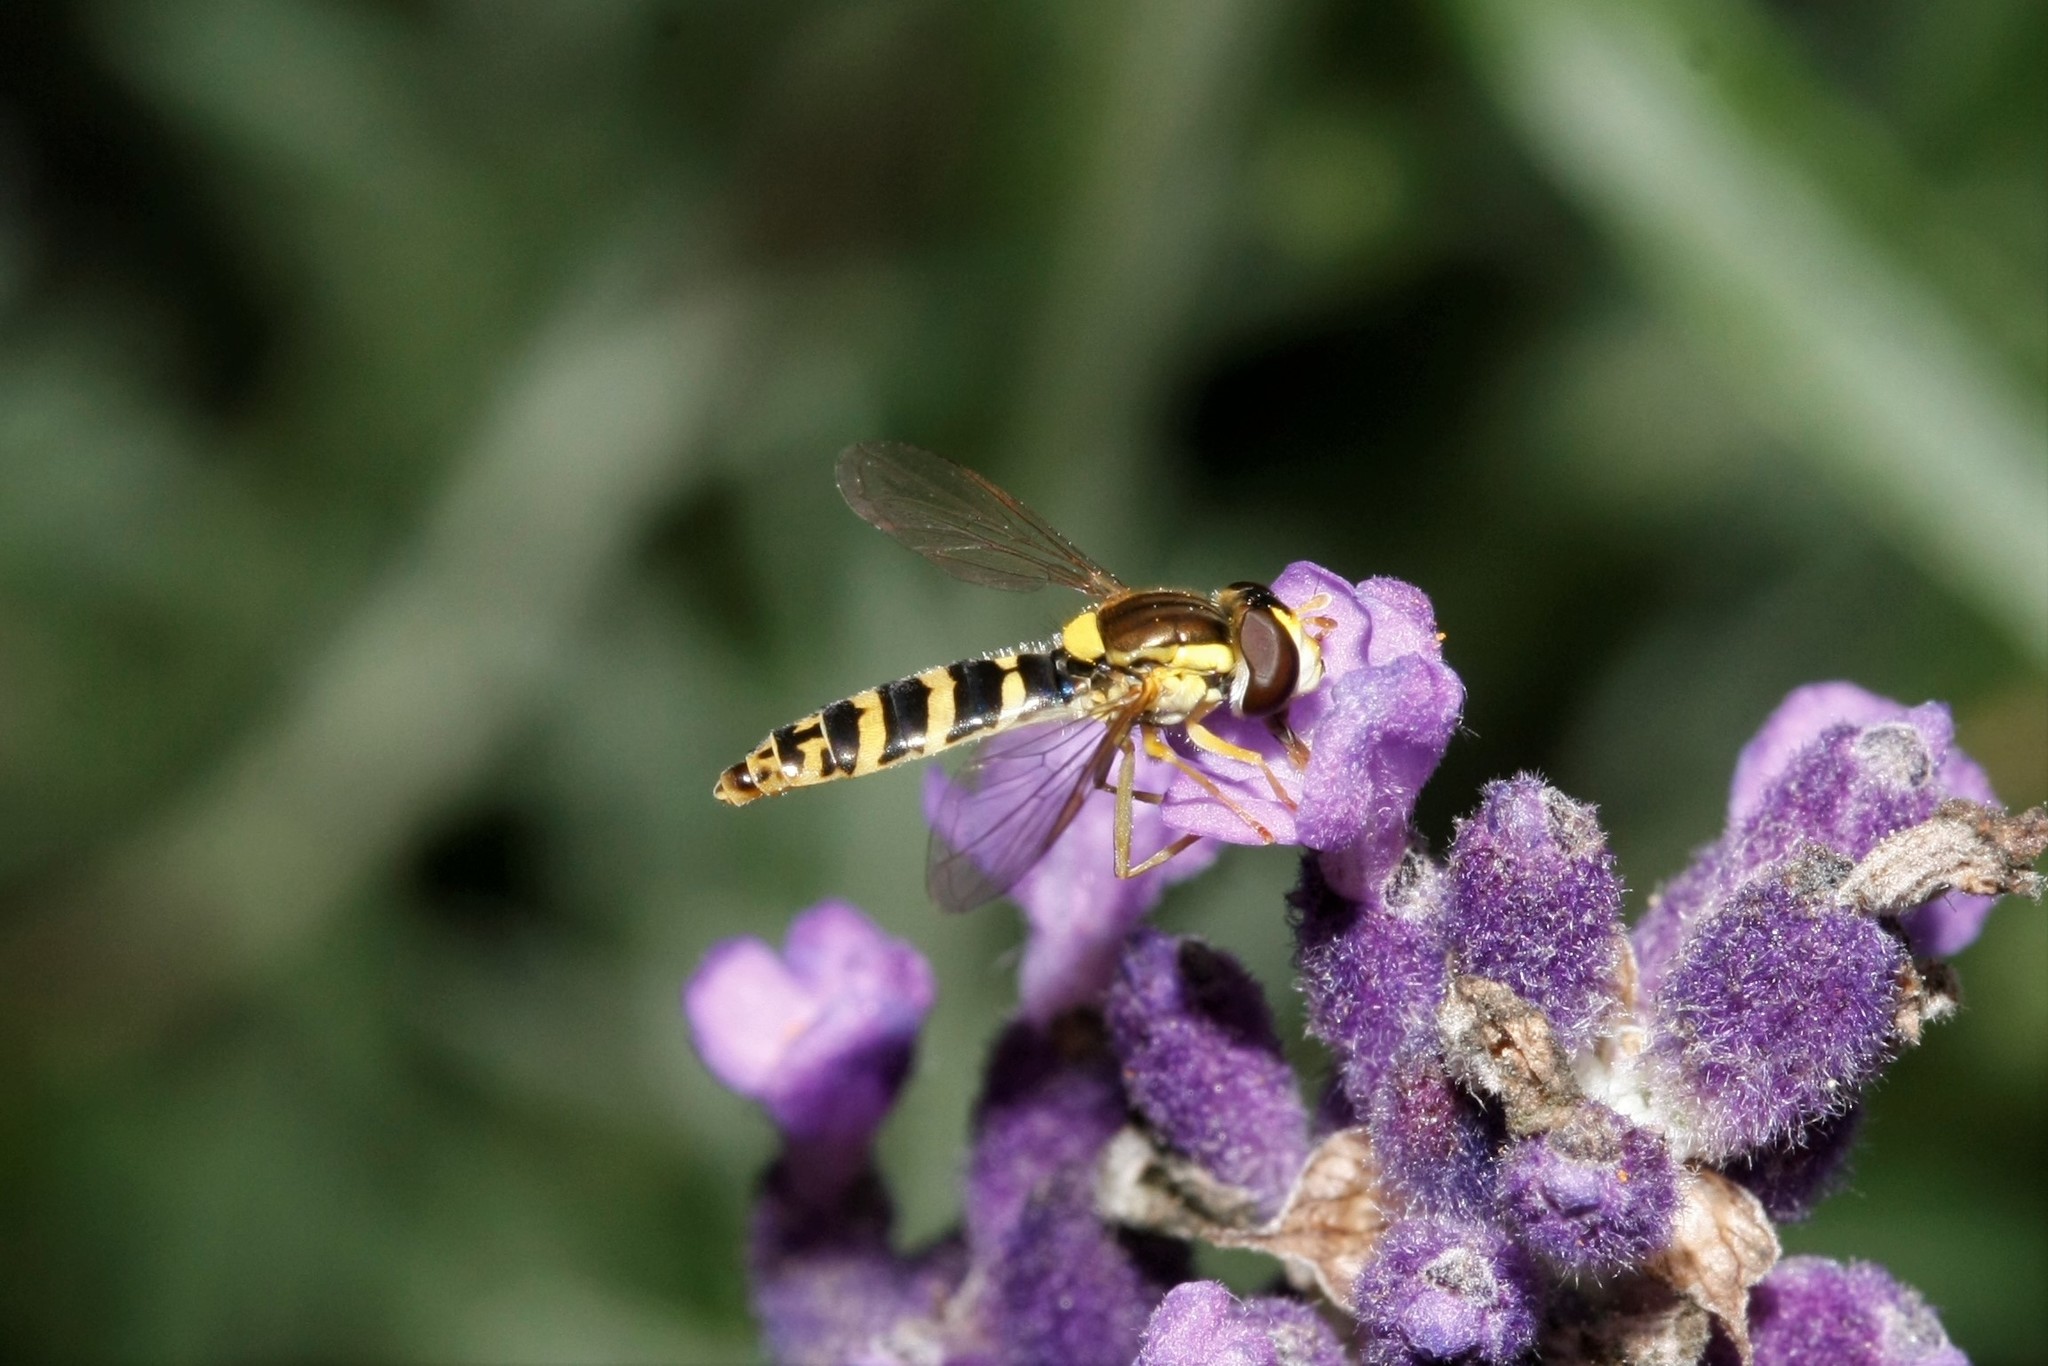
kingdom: Animalia
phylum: Arthropoda
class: Insecta
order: Diptera
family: Syrphidae
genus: Sphaerophoria
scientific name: Sphaerophoria
